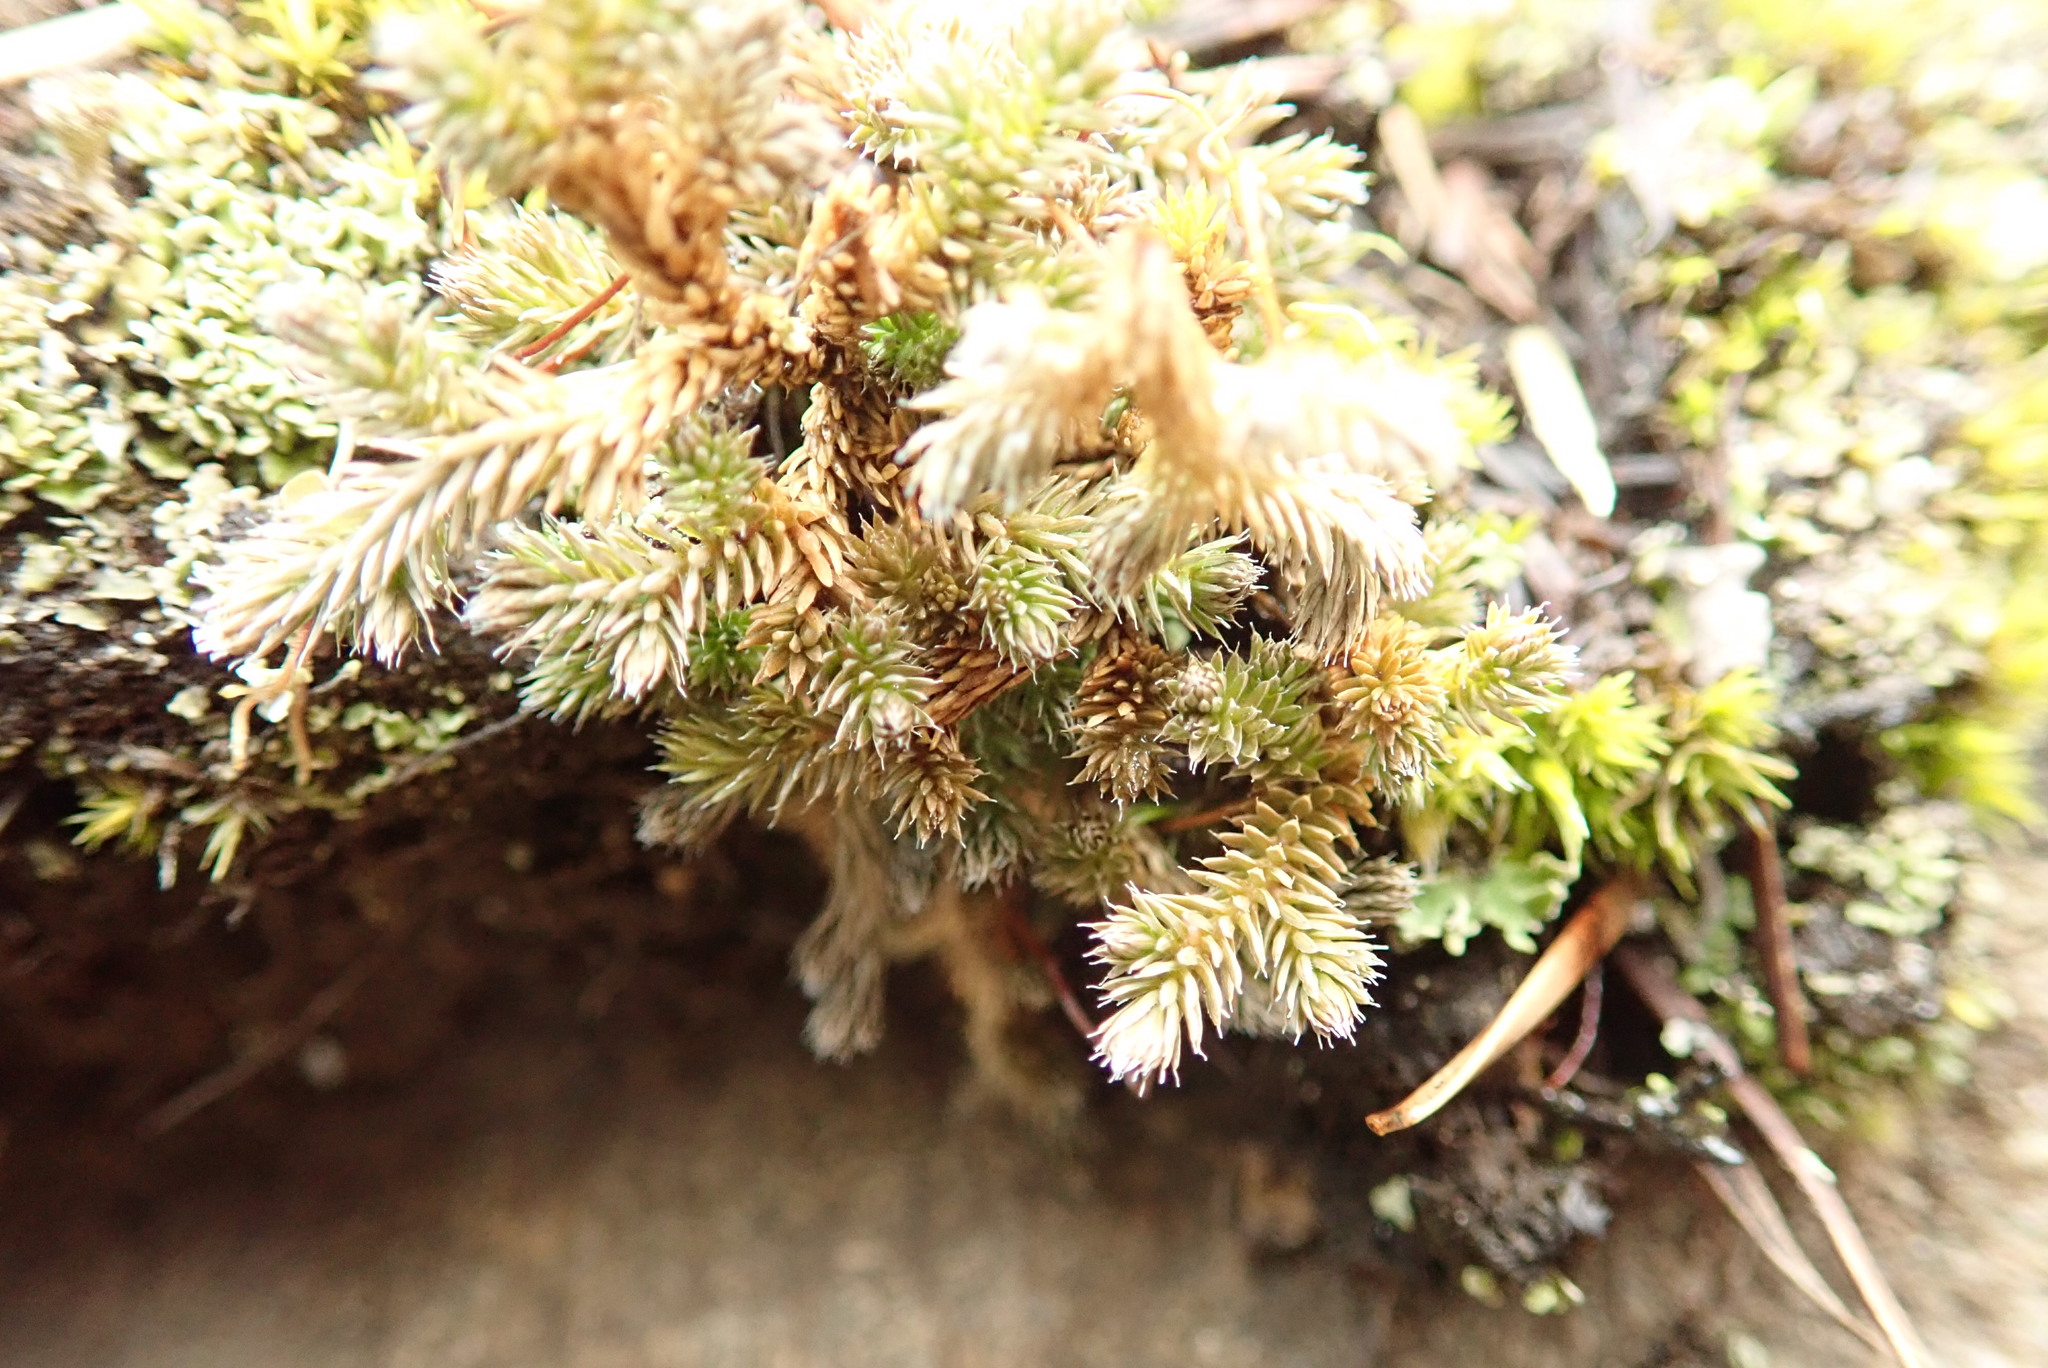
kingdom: Plantae
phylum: Tracheophyta
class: Lycopodiopsida
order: Selaginellales
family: Selaginellaceae
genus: Selaginella
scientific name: Selaginella wallacei
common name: Wallace's selaginella
